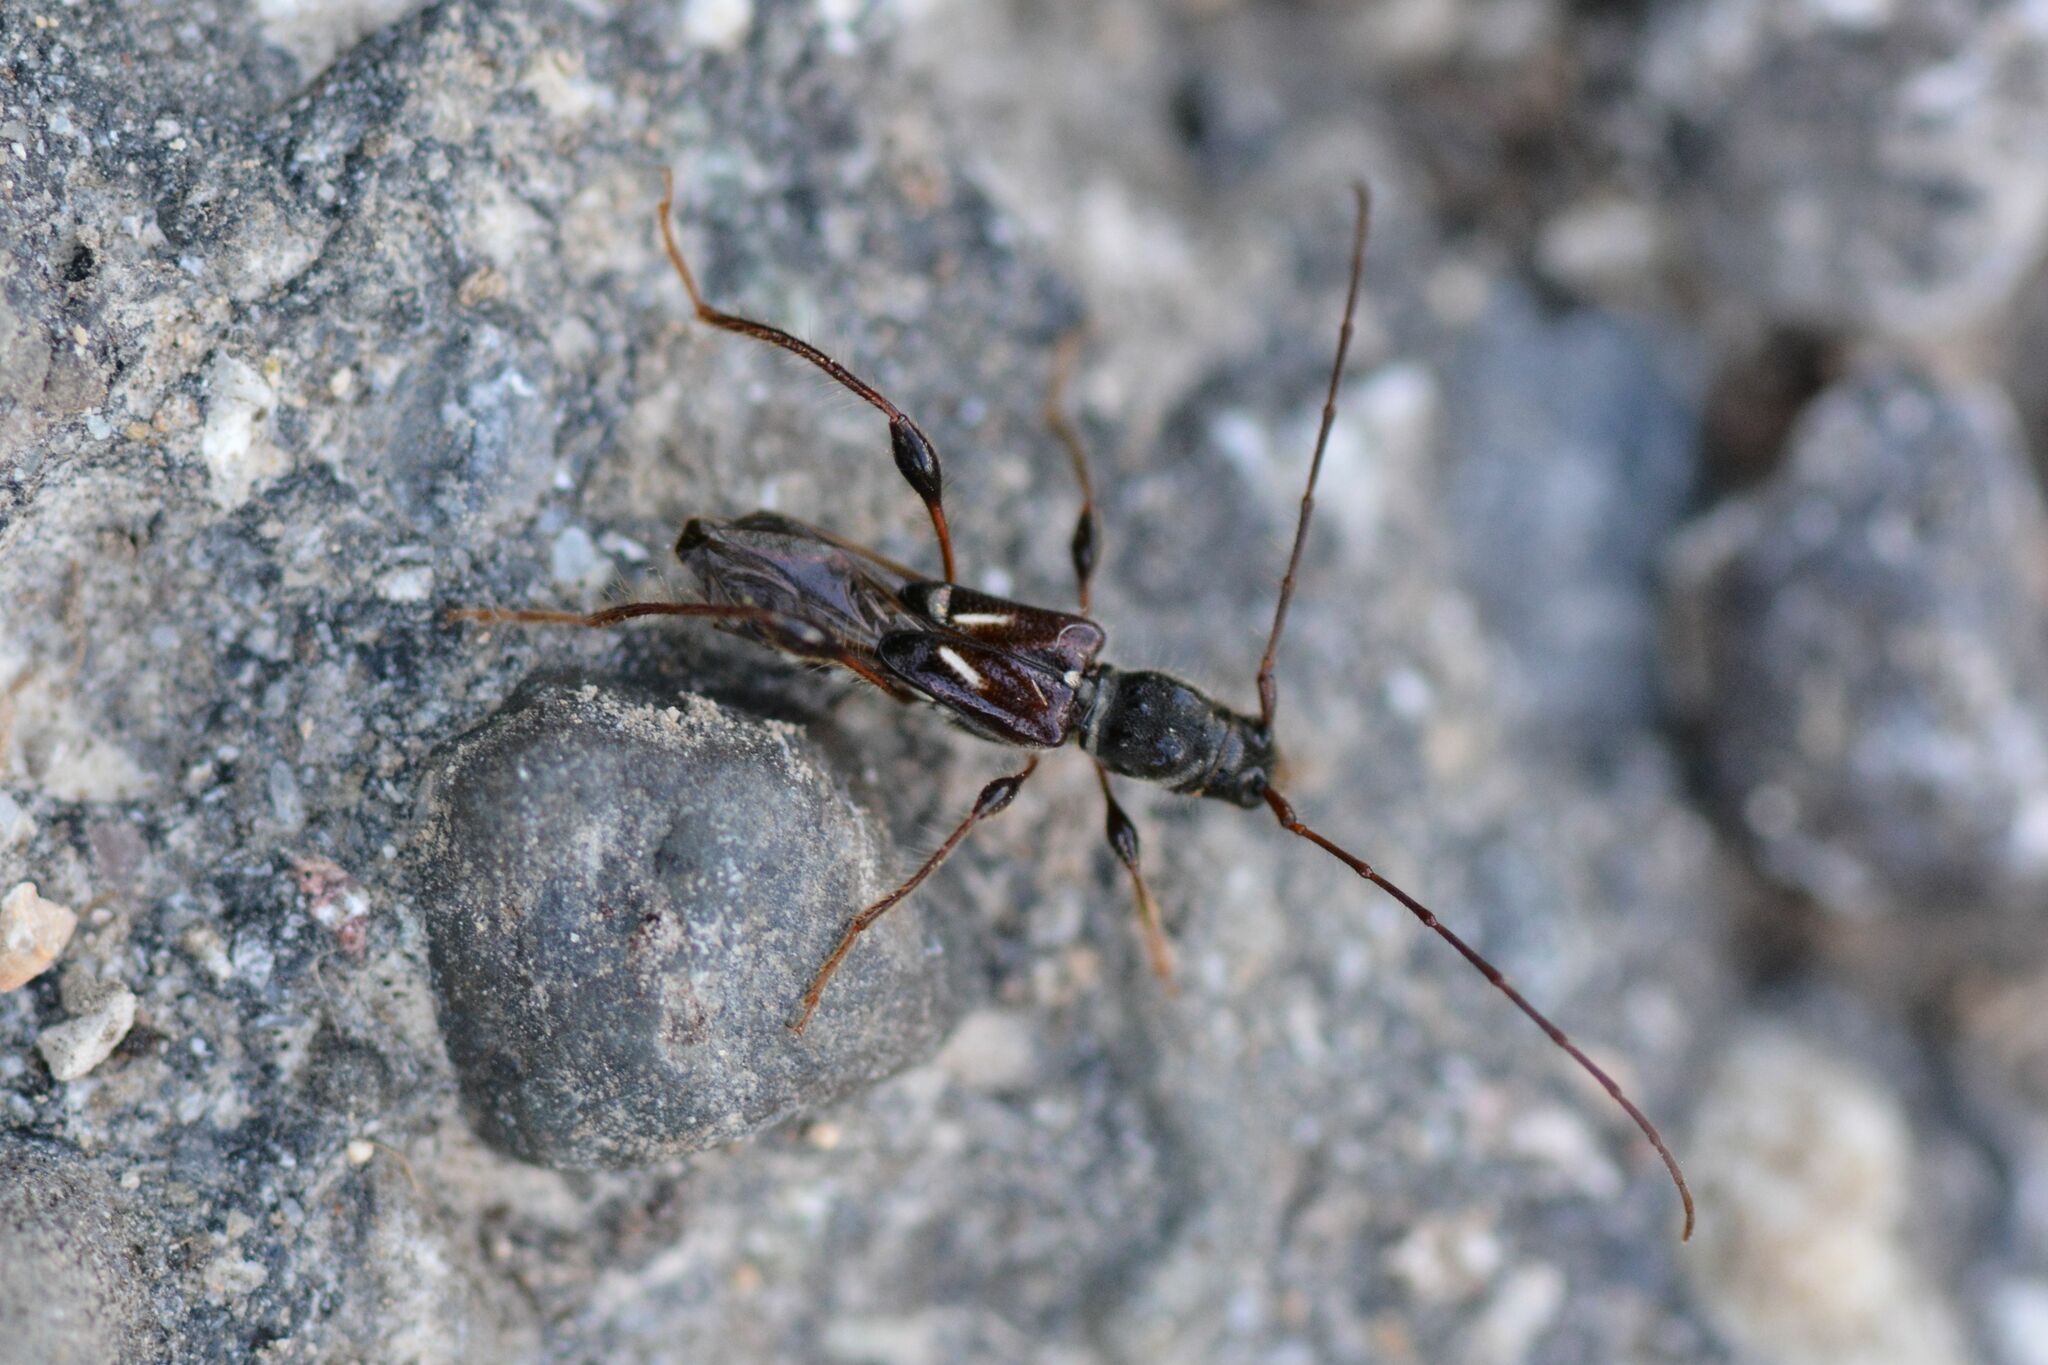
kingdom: Animalia
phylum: Arthropoda
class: Insecta
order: Coleoptera
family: Cerambycidae
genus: Molorchus
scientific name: Molorchus minor
